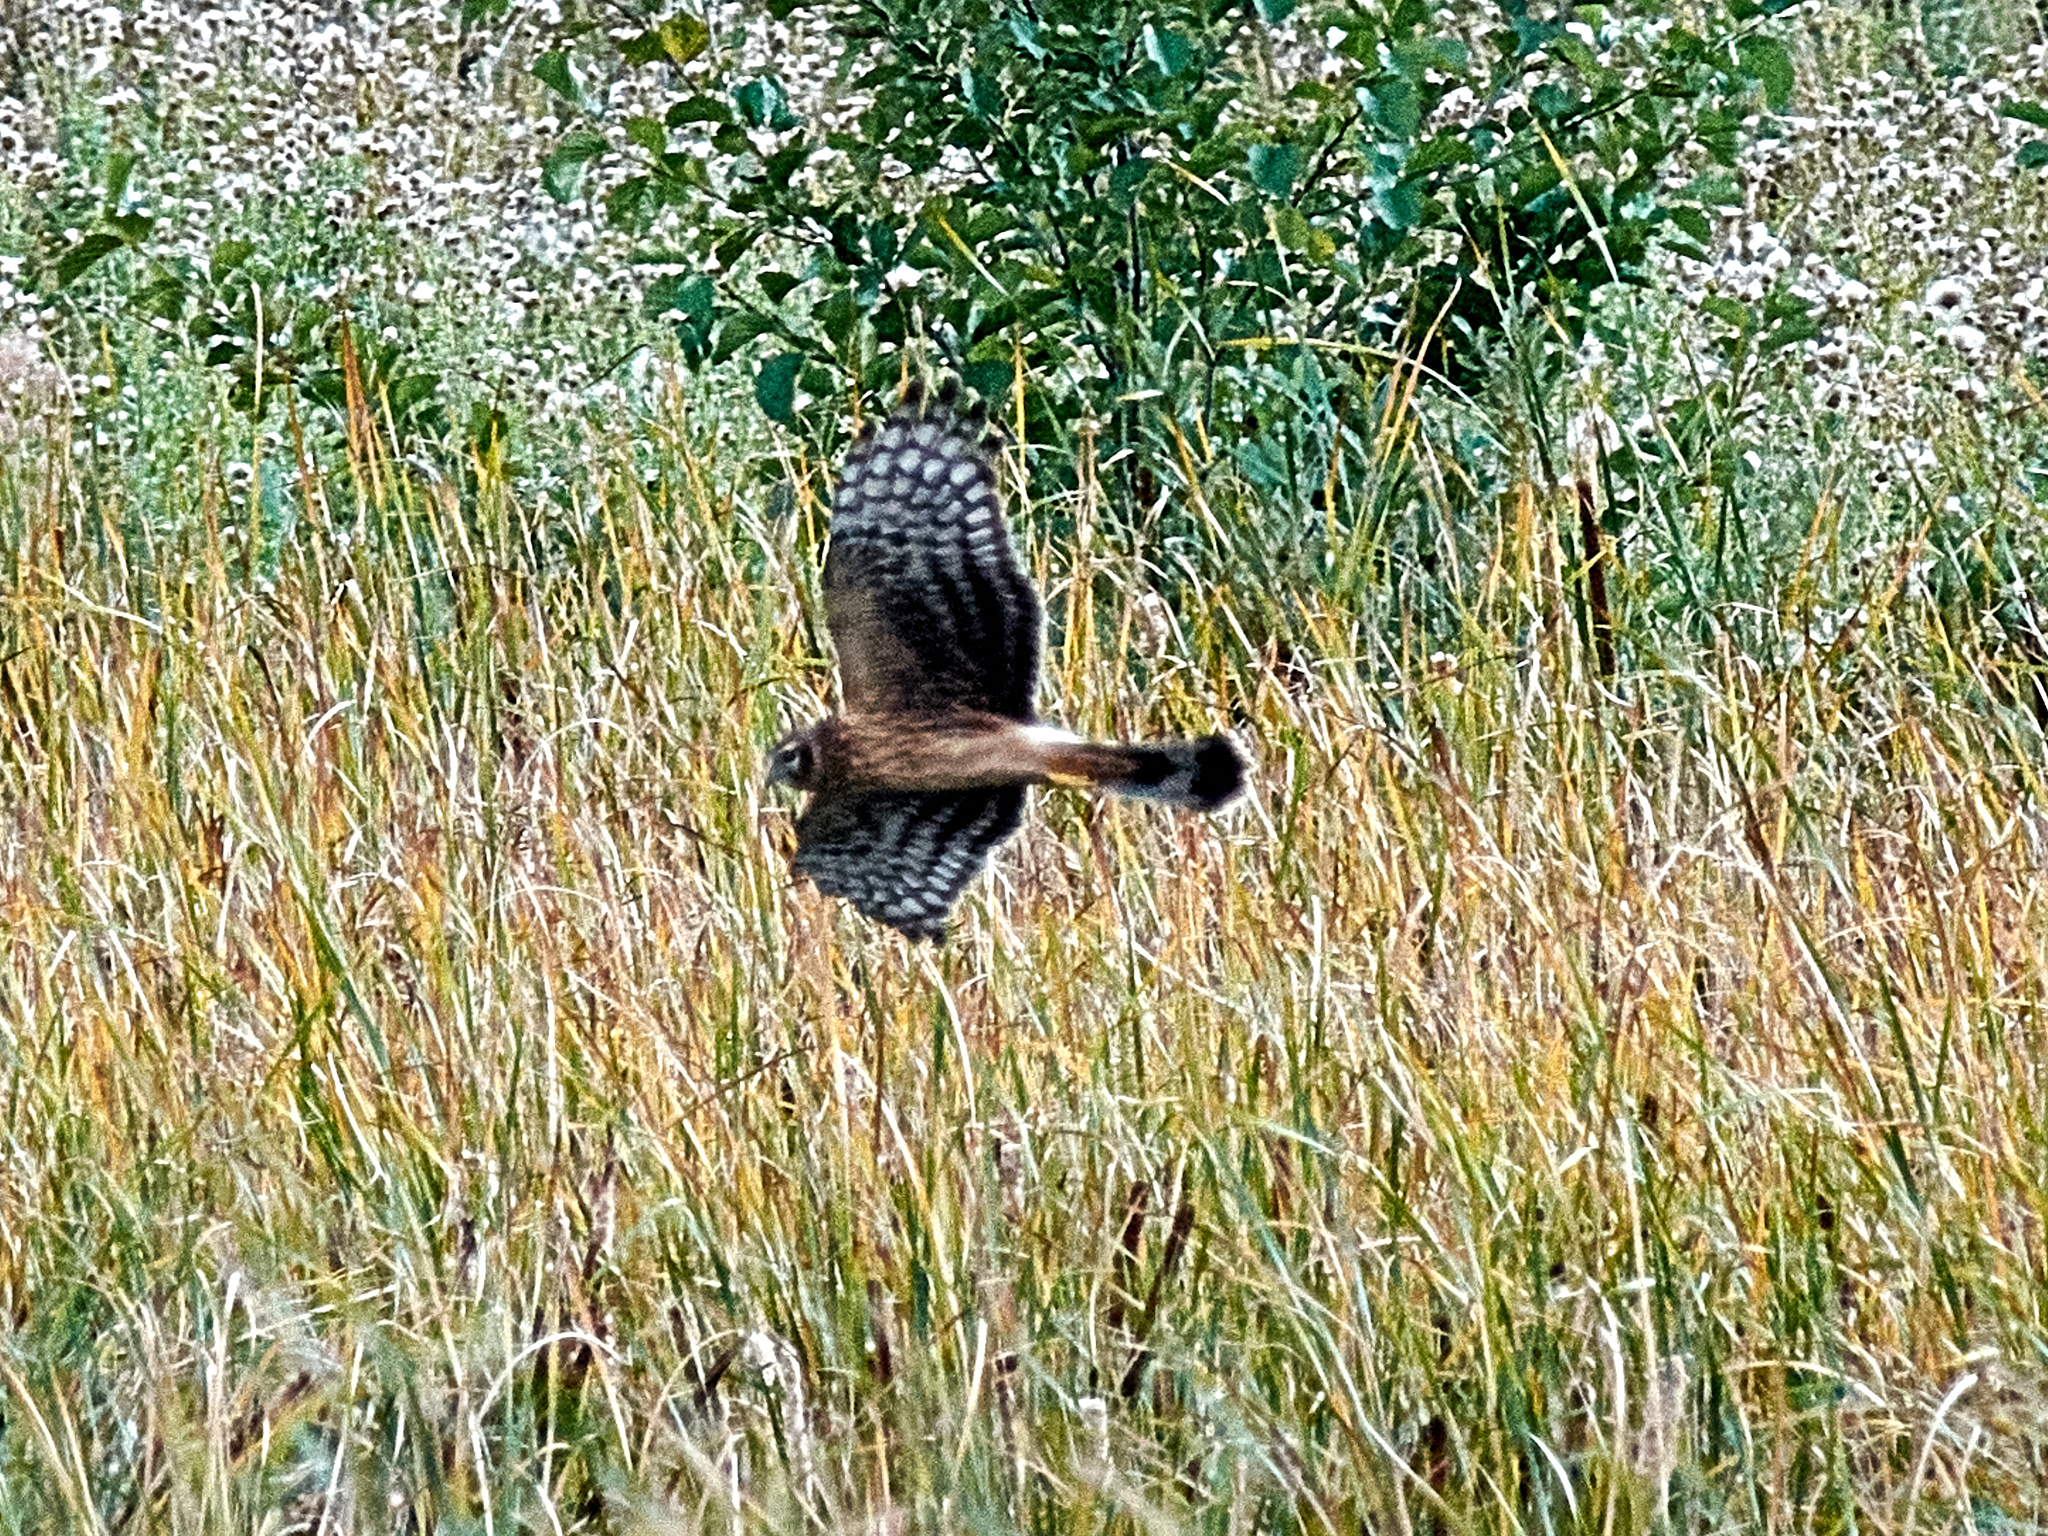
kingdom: Animalia
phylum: Chordata
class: Aves
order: Accipitriformes
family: Accipitridae
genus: Circus
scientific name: Circus cyaneus
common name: Hen harrier
